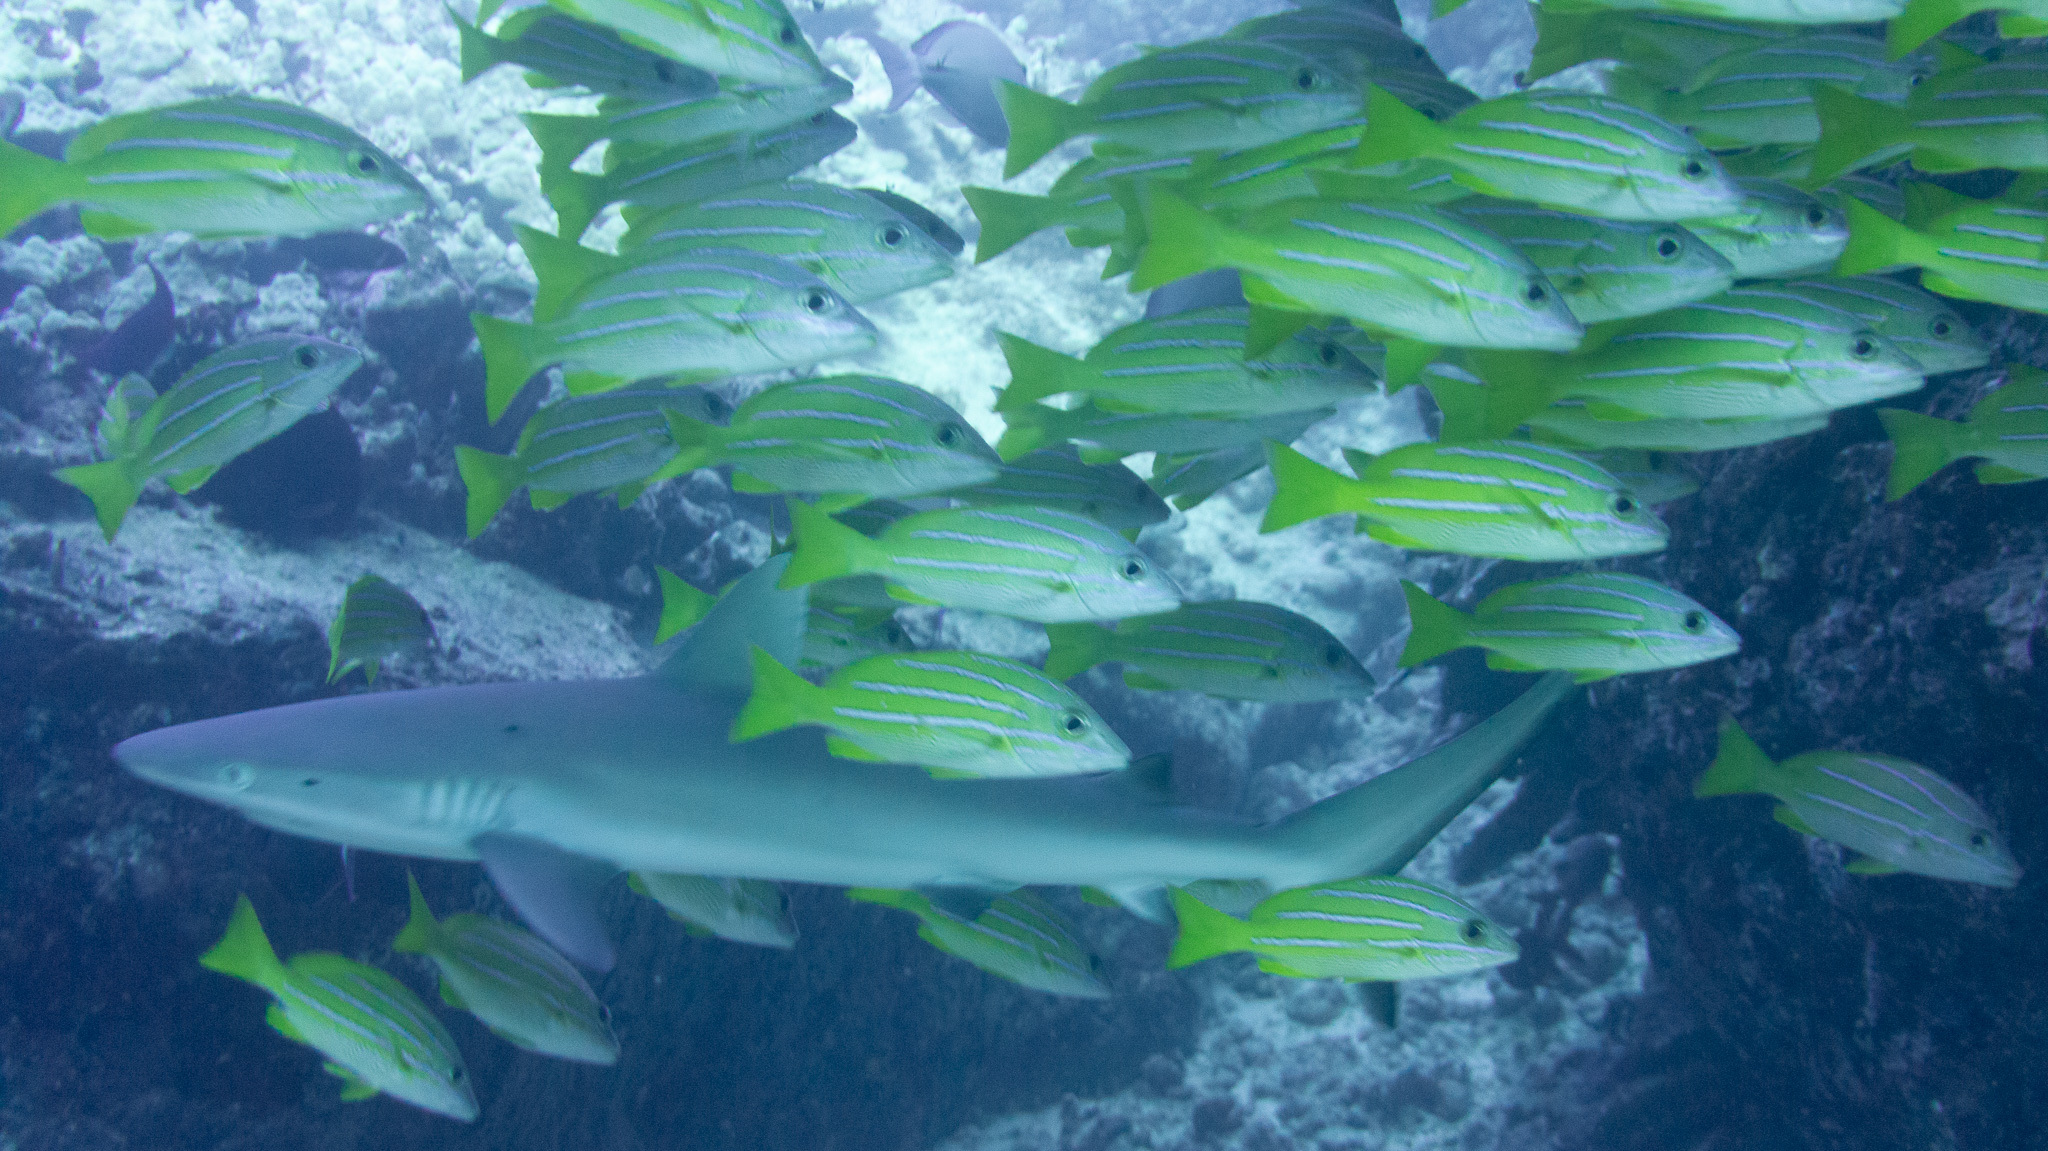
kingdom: Animalia
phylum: Chordata
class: Elasmobranchii
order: Carcharhiniformes
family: Carcharhinidae
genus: Carcharhinus
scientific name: Carcharhinus amblyrhynchos
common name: Grey reef shark
